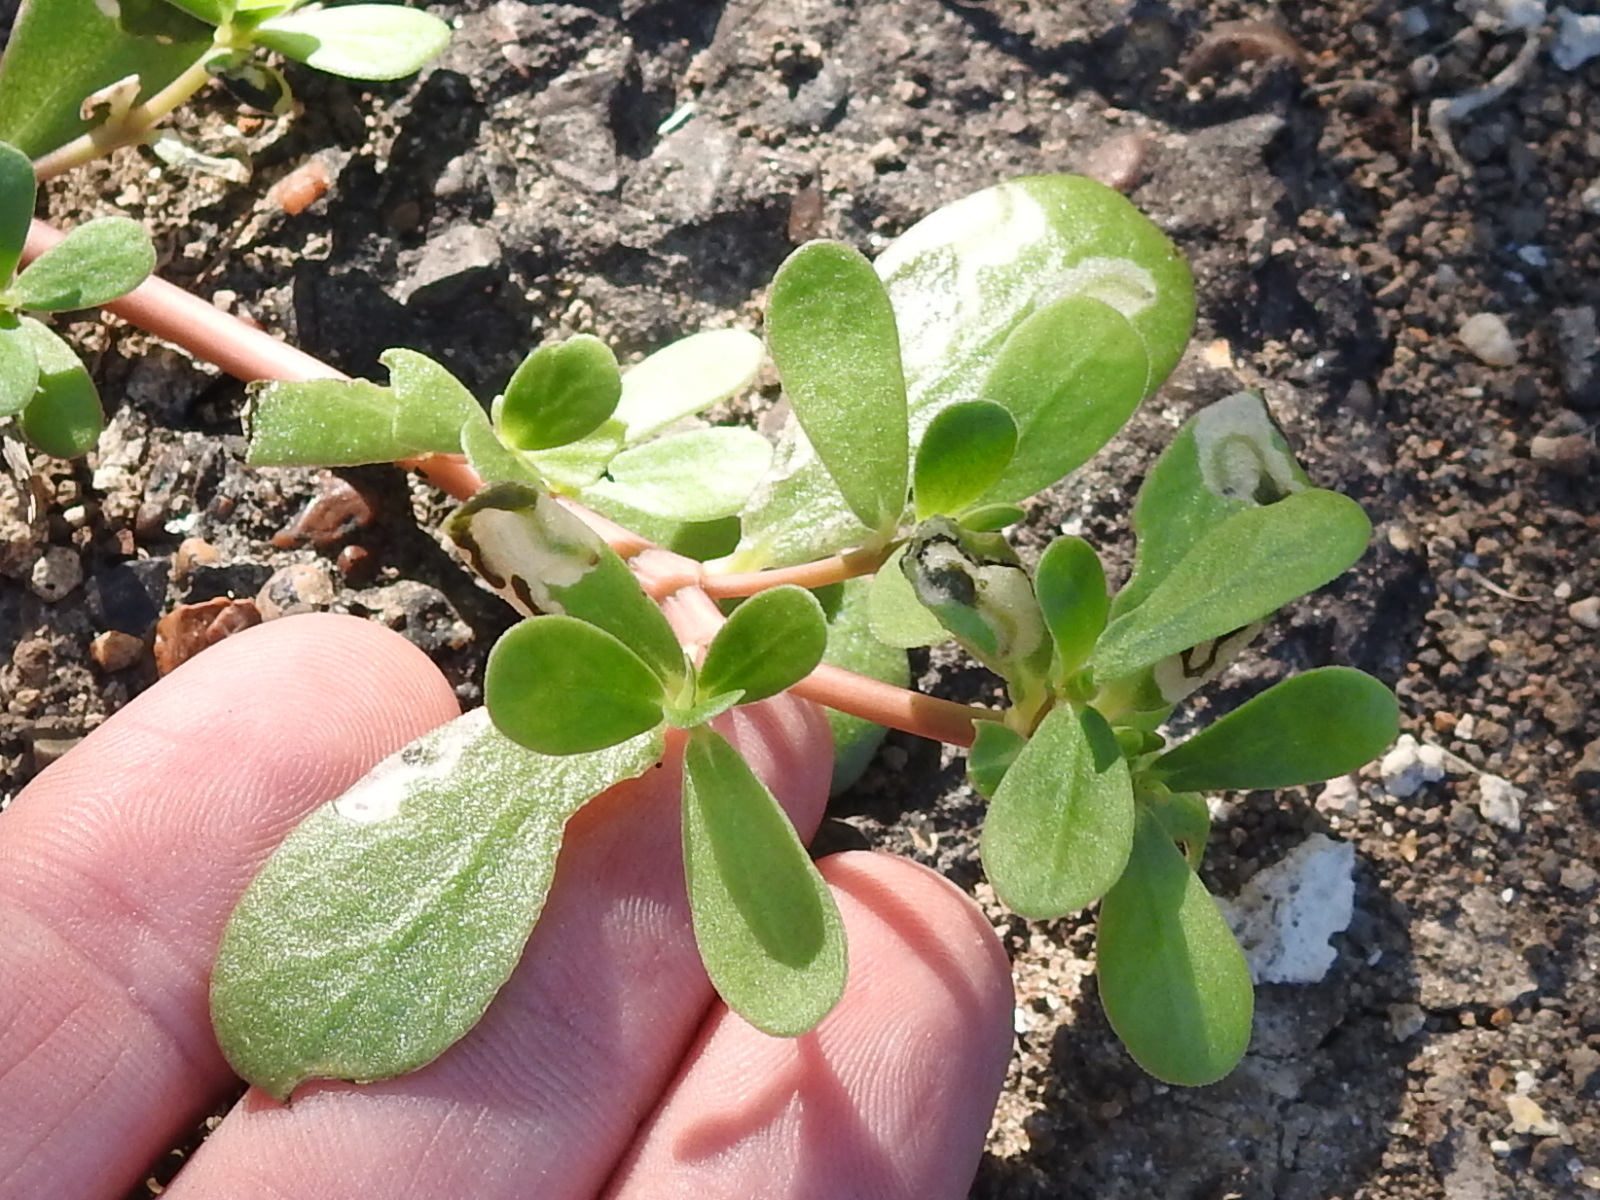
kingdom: Plantae
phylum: Tracheophyta
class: Magnoliopsida
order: Caryophyllales
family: Portulacaceae
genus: Portulaca
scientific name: Portulaca oleracea
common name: Common purslane
